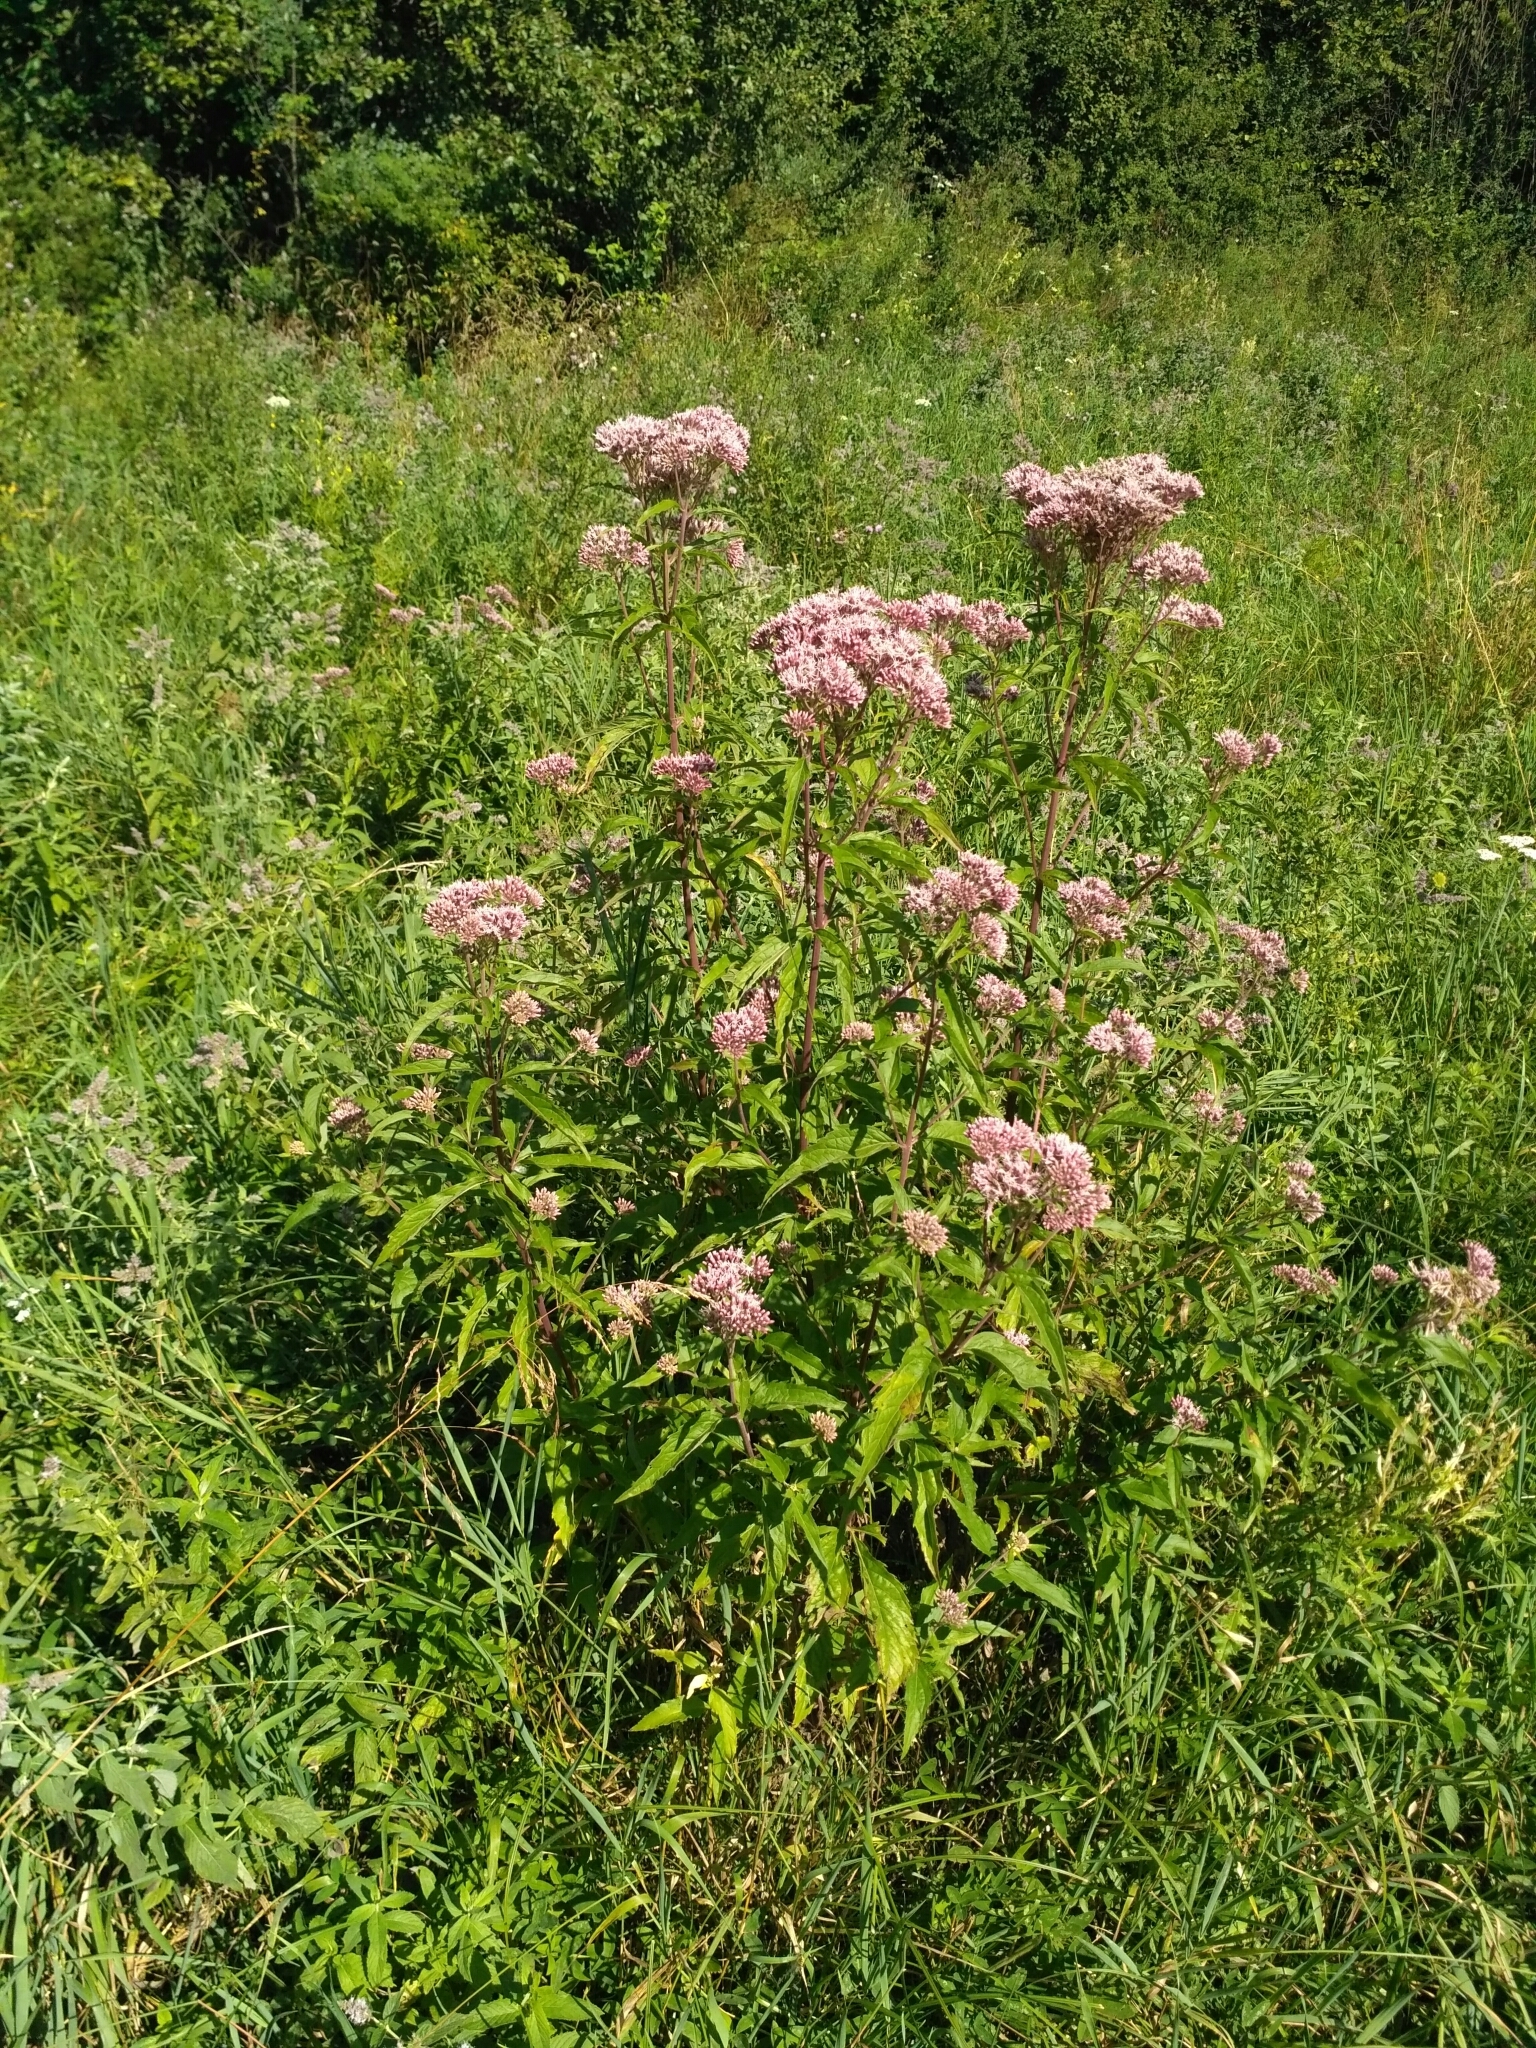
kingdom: Plantae
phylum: Tracheophyta
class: Magnoliopsida
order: Asterales
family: Asteraceae
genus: Eupatorium
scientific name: Eupatorium cannabinum
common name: Hemp-agrimony
